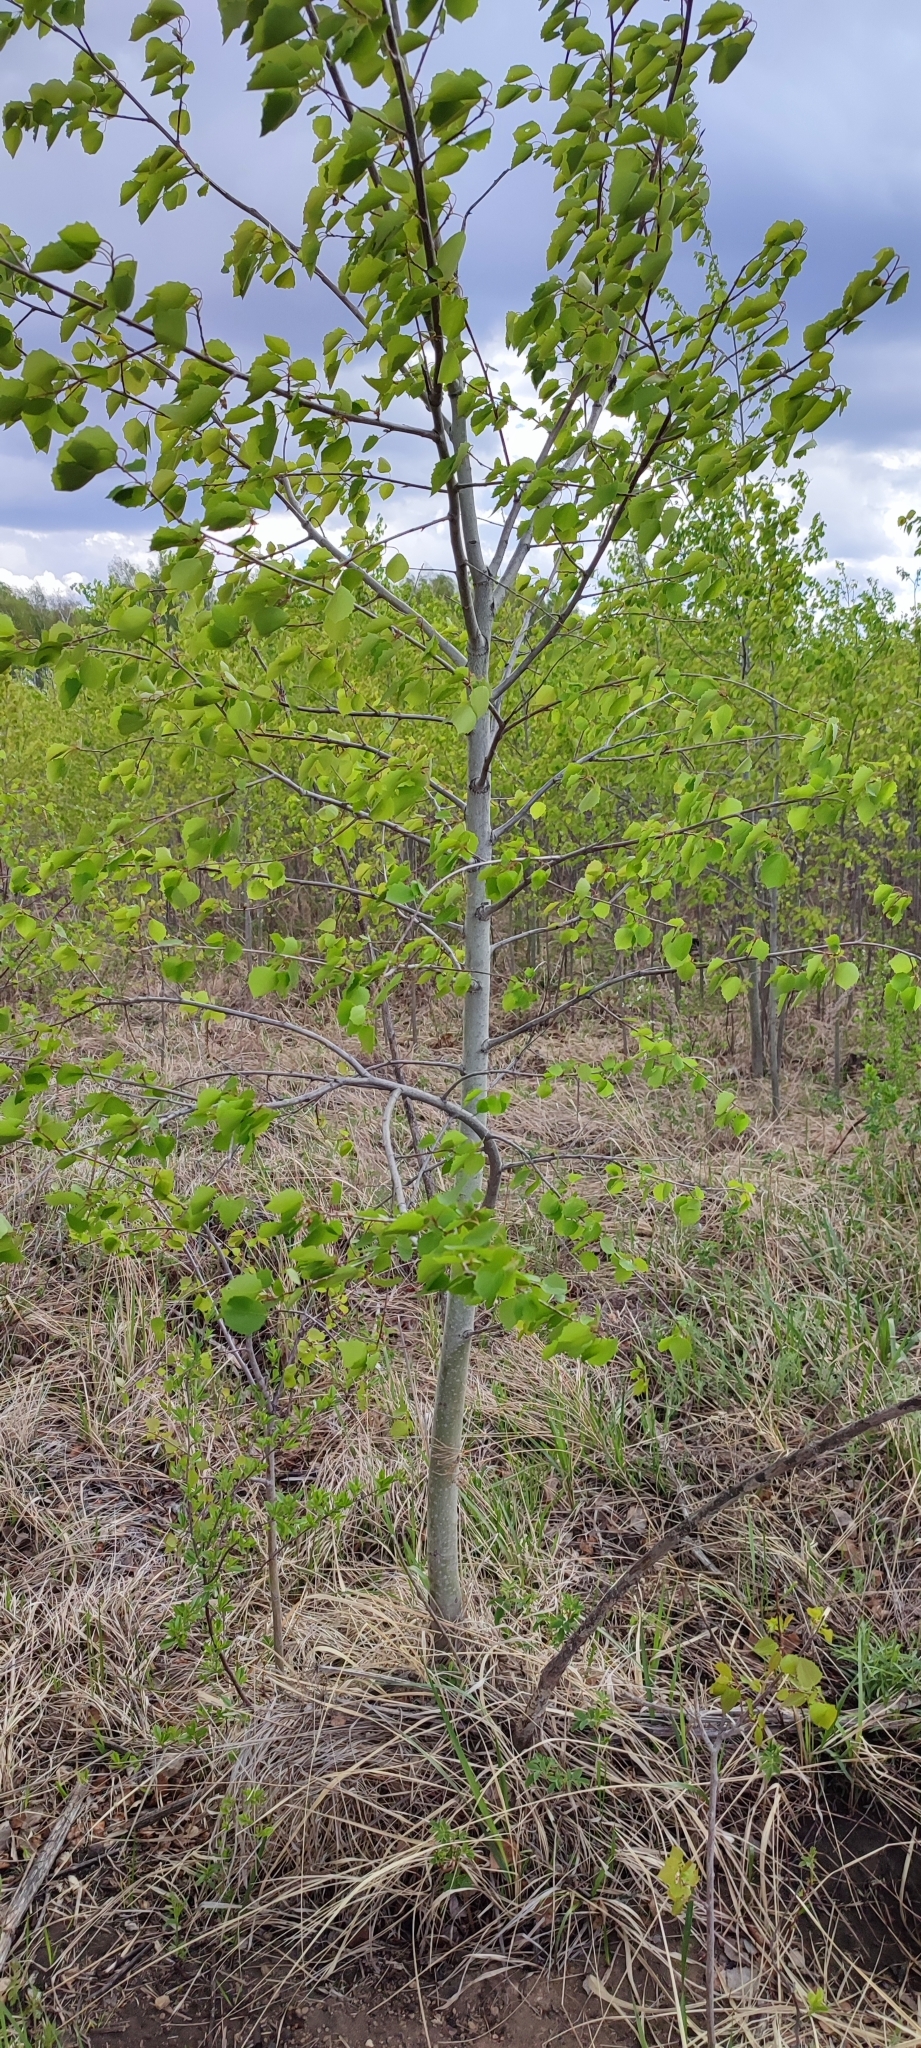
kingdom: Plantae
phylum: Tracheophyta
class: Magnoliopsida
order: Malpighiales
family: Salicaceae
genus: Populus
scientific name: Populus tremula
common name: European aspen
